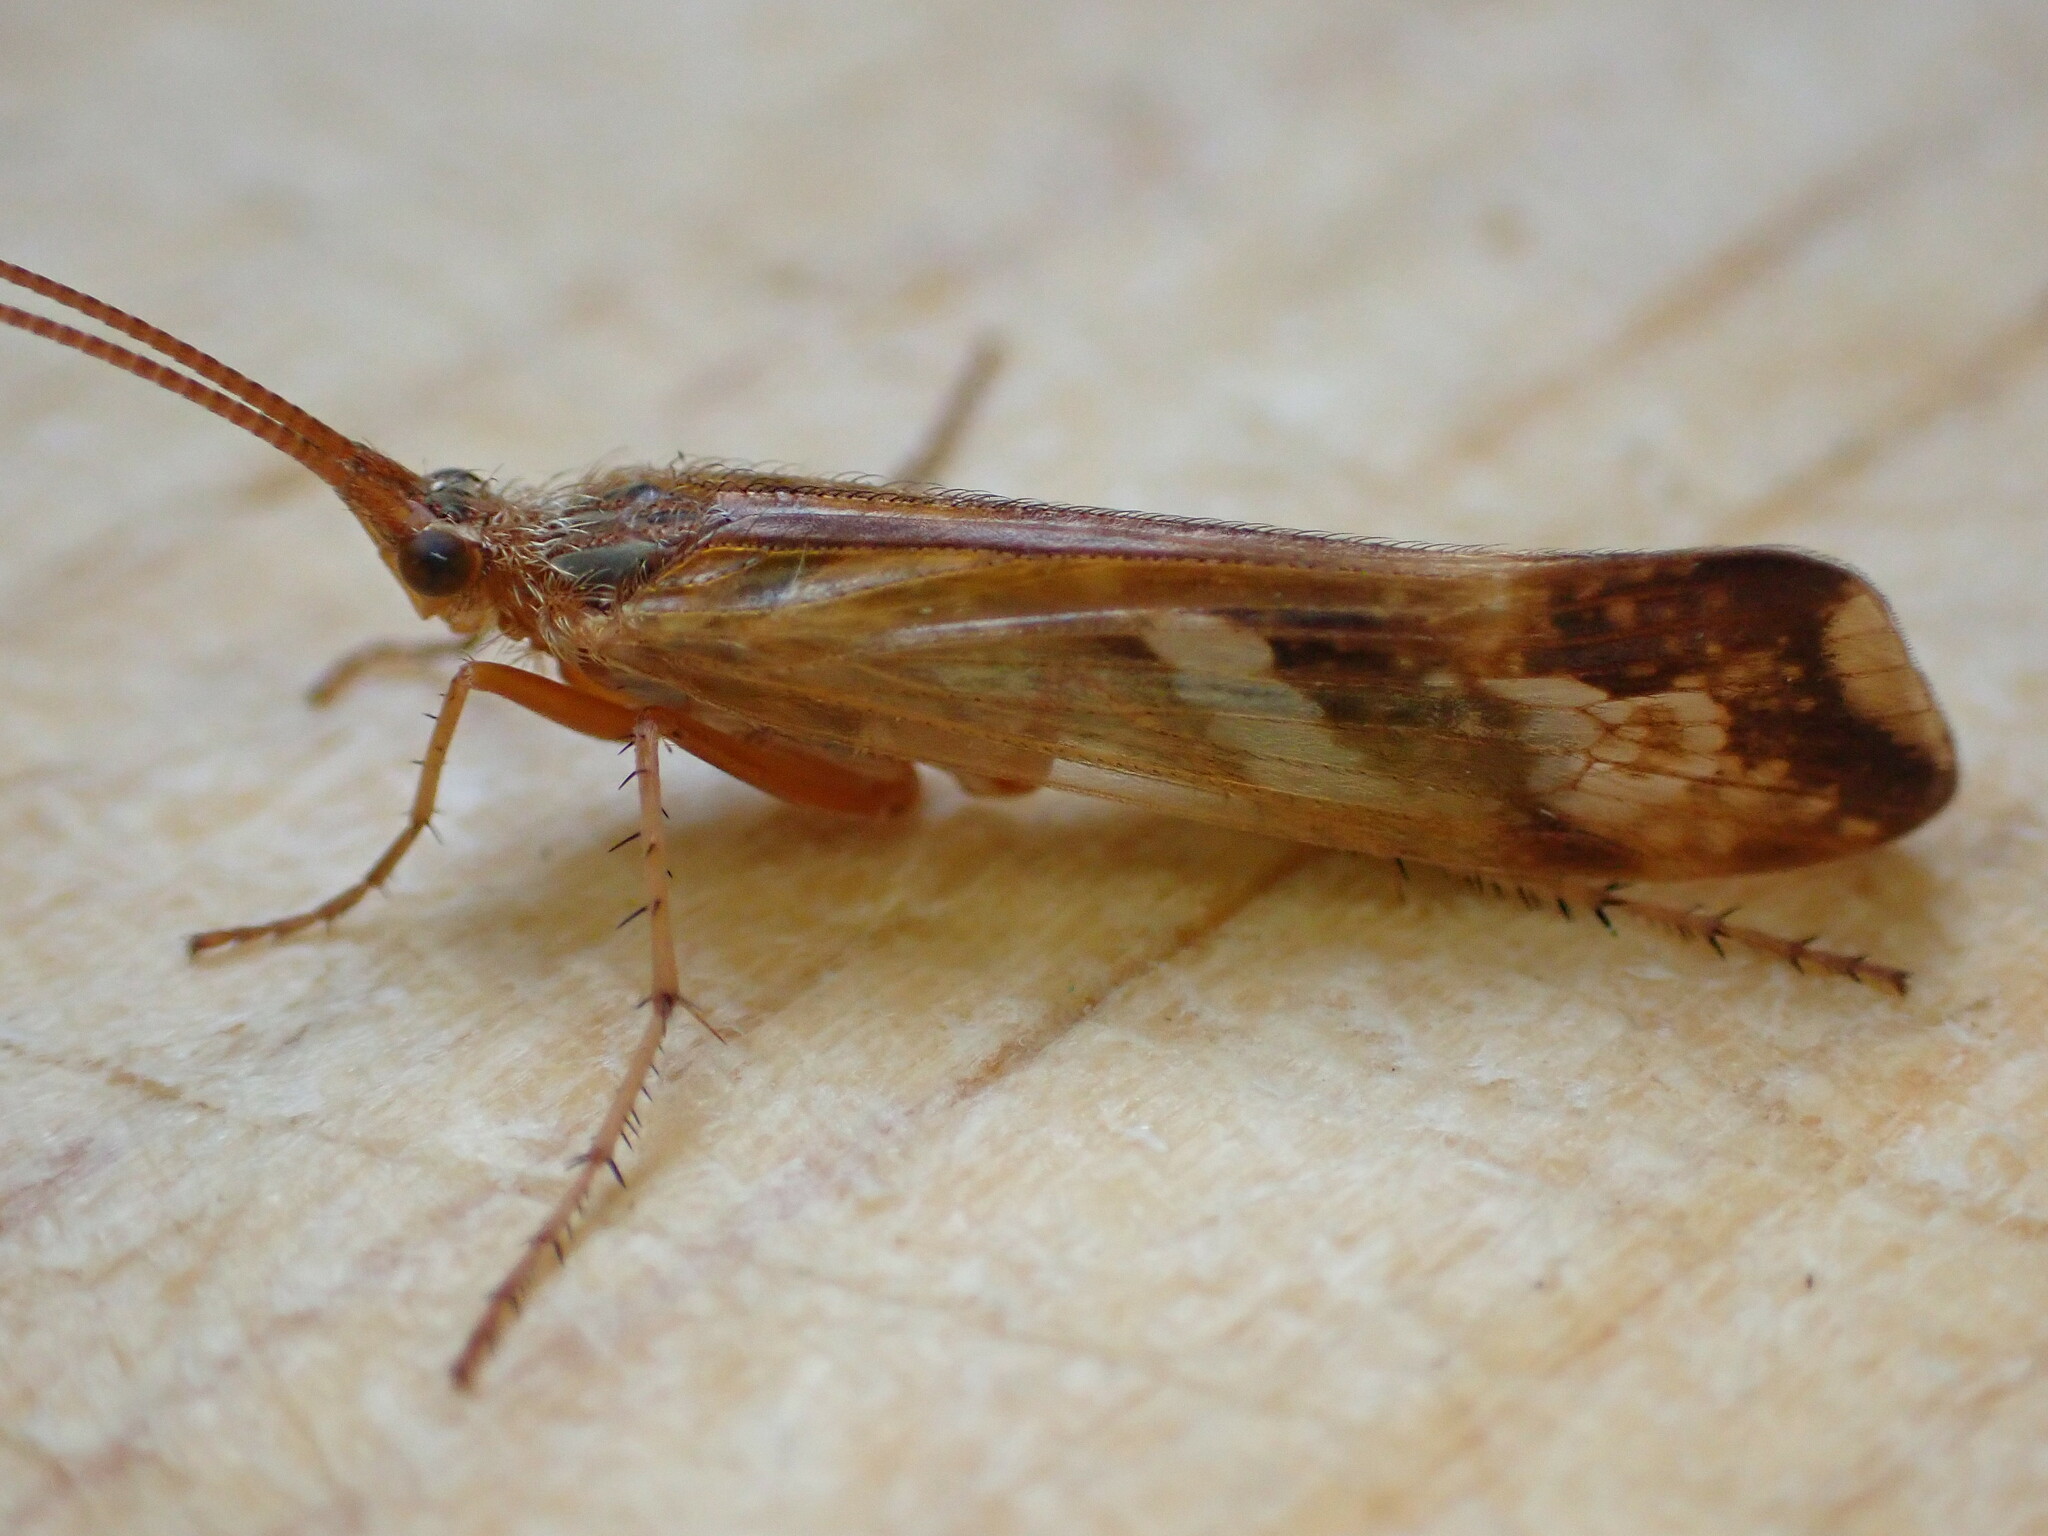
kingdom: Animalia
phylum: Arthropoda
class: Insecta
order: Trichoptera
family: Limnephilidae
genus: Limnephilus
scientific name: Limnephilus lunatus
